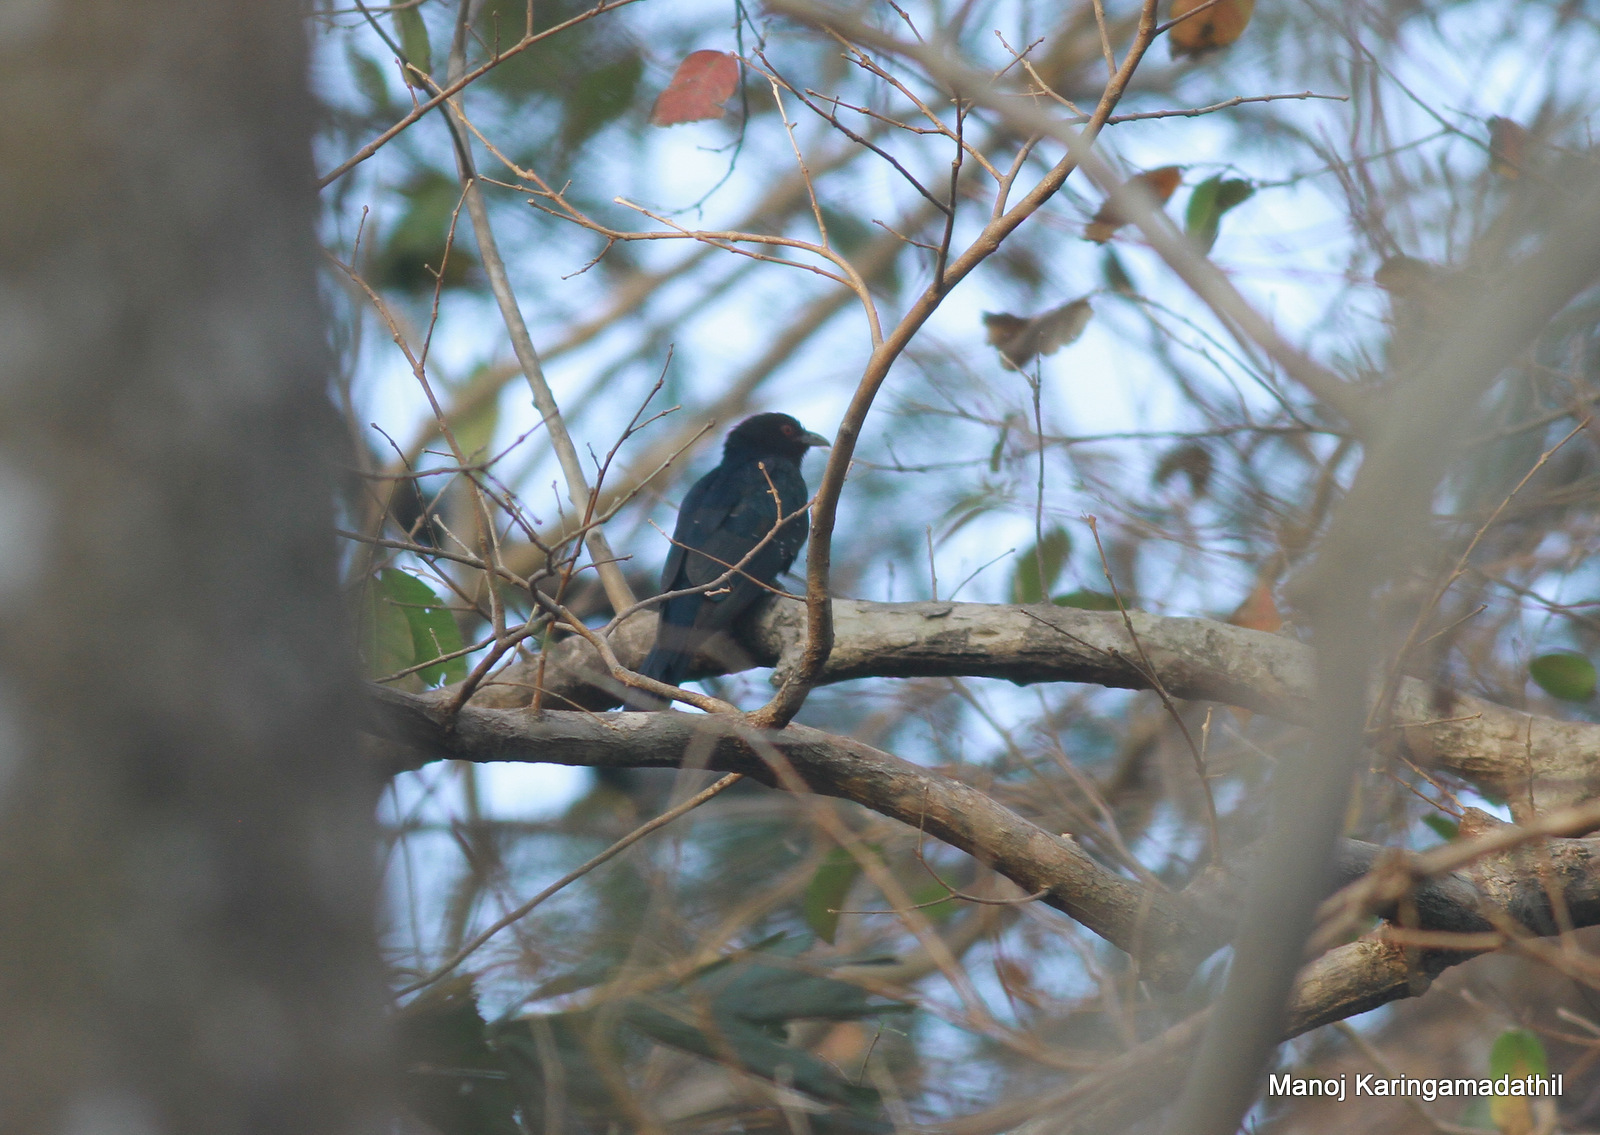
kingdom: Animalia
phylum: Chordata
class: Aves
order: Cuculiformes
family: Cuculidae
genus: Eudynamys
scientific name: Eudynamys scolopaceus
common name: Asian koel
